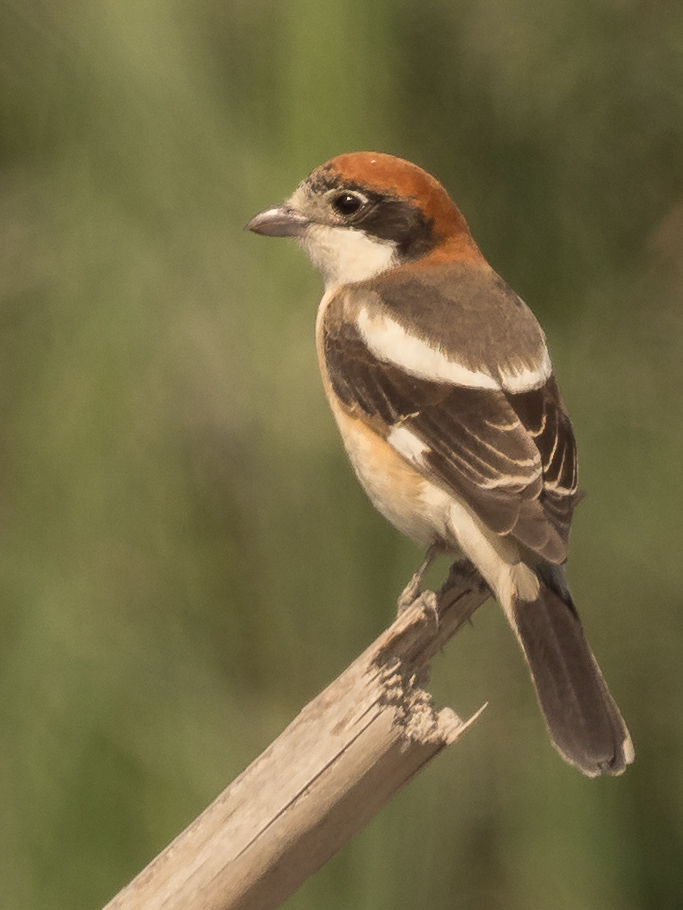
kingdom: Animalia
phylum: Chordata
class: Aves
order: Passeriformes
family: Laniidae
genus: Lanius
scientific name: Lanius senator
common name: Woodchat shrike
